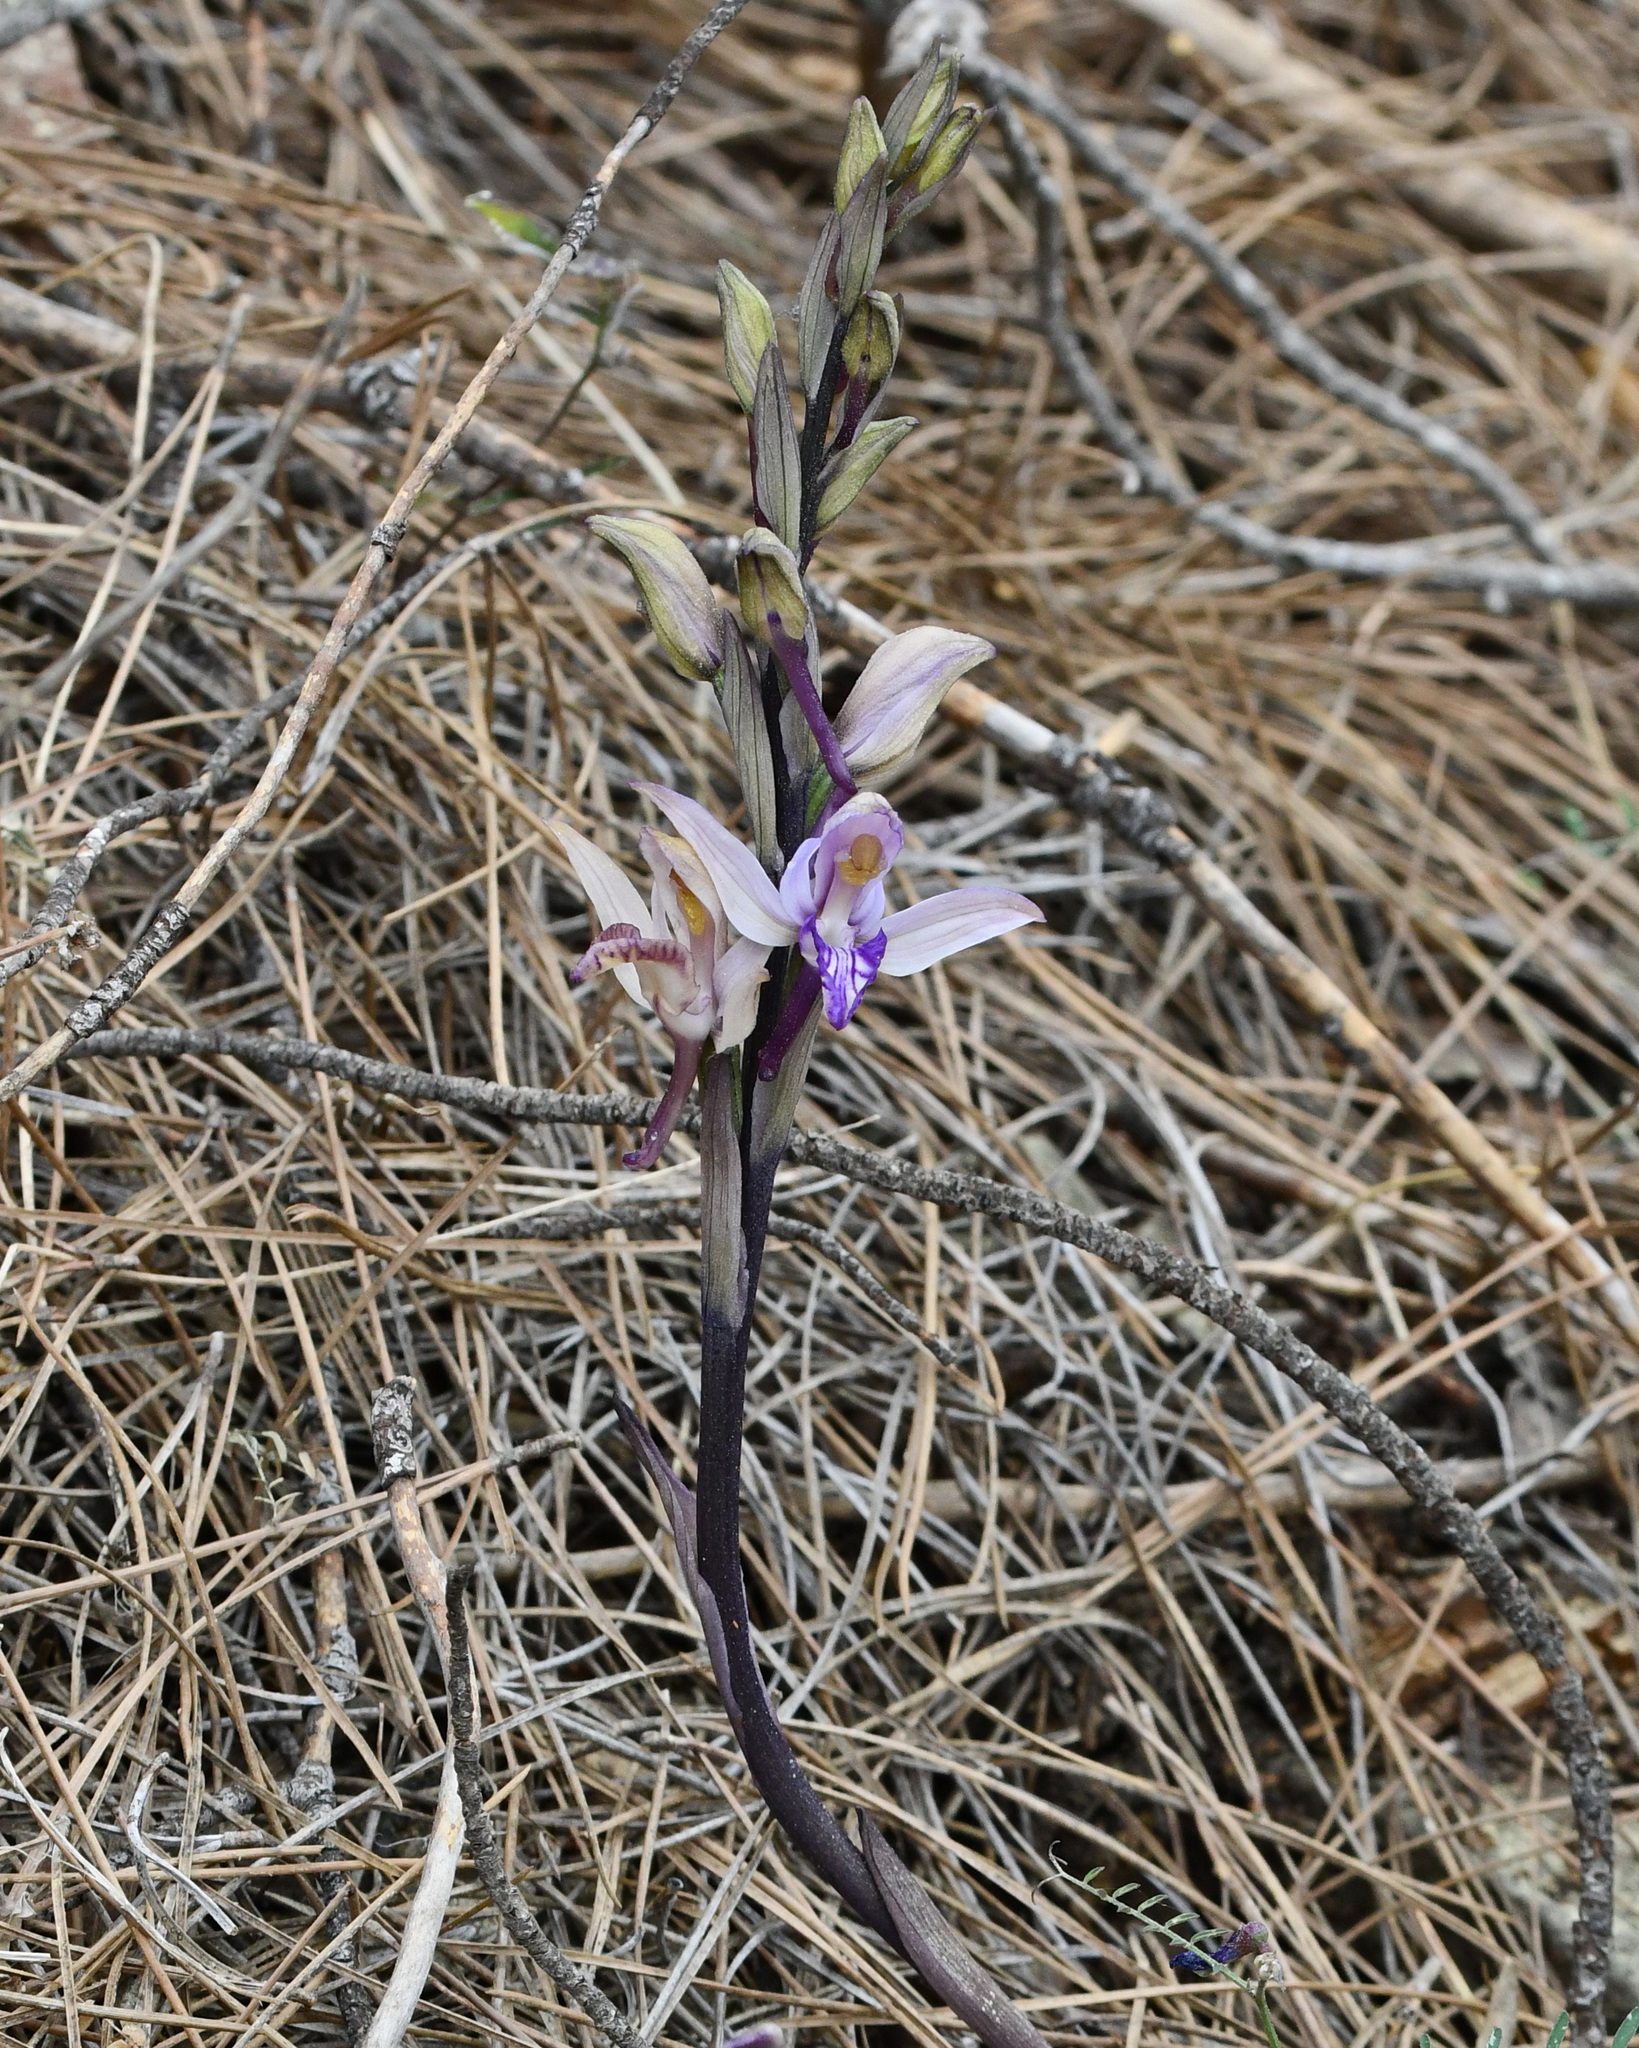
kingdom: Plantae
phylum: Tracheophyta
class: Liliopsida
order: Asparagales
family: Orchidaceae
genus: Limodorum
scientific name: Limodorum abortivum
